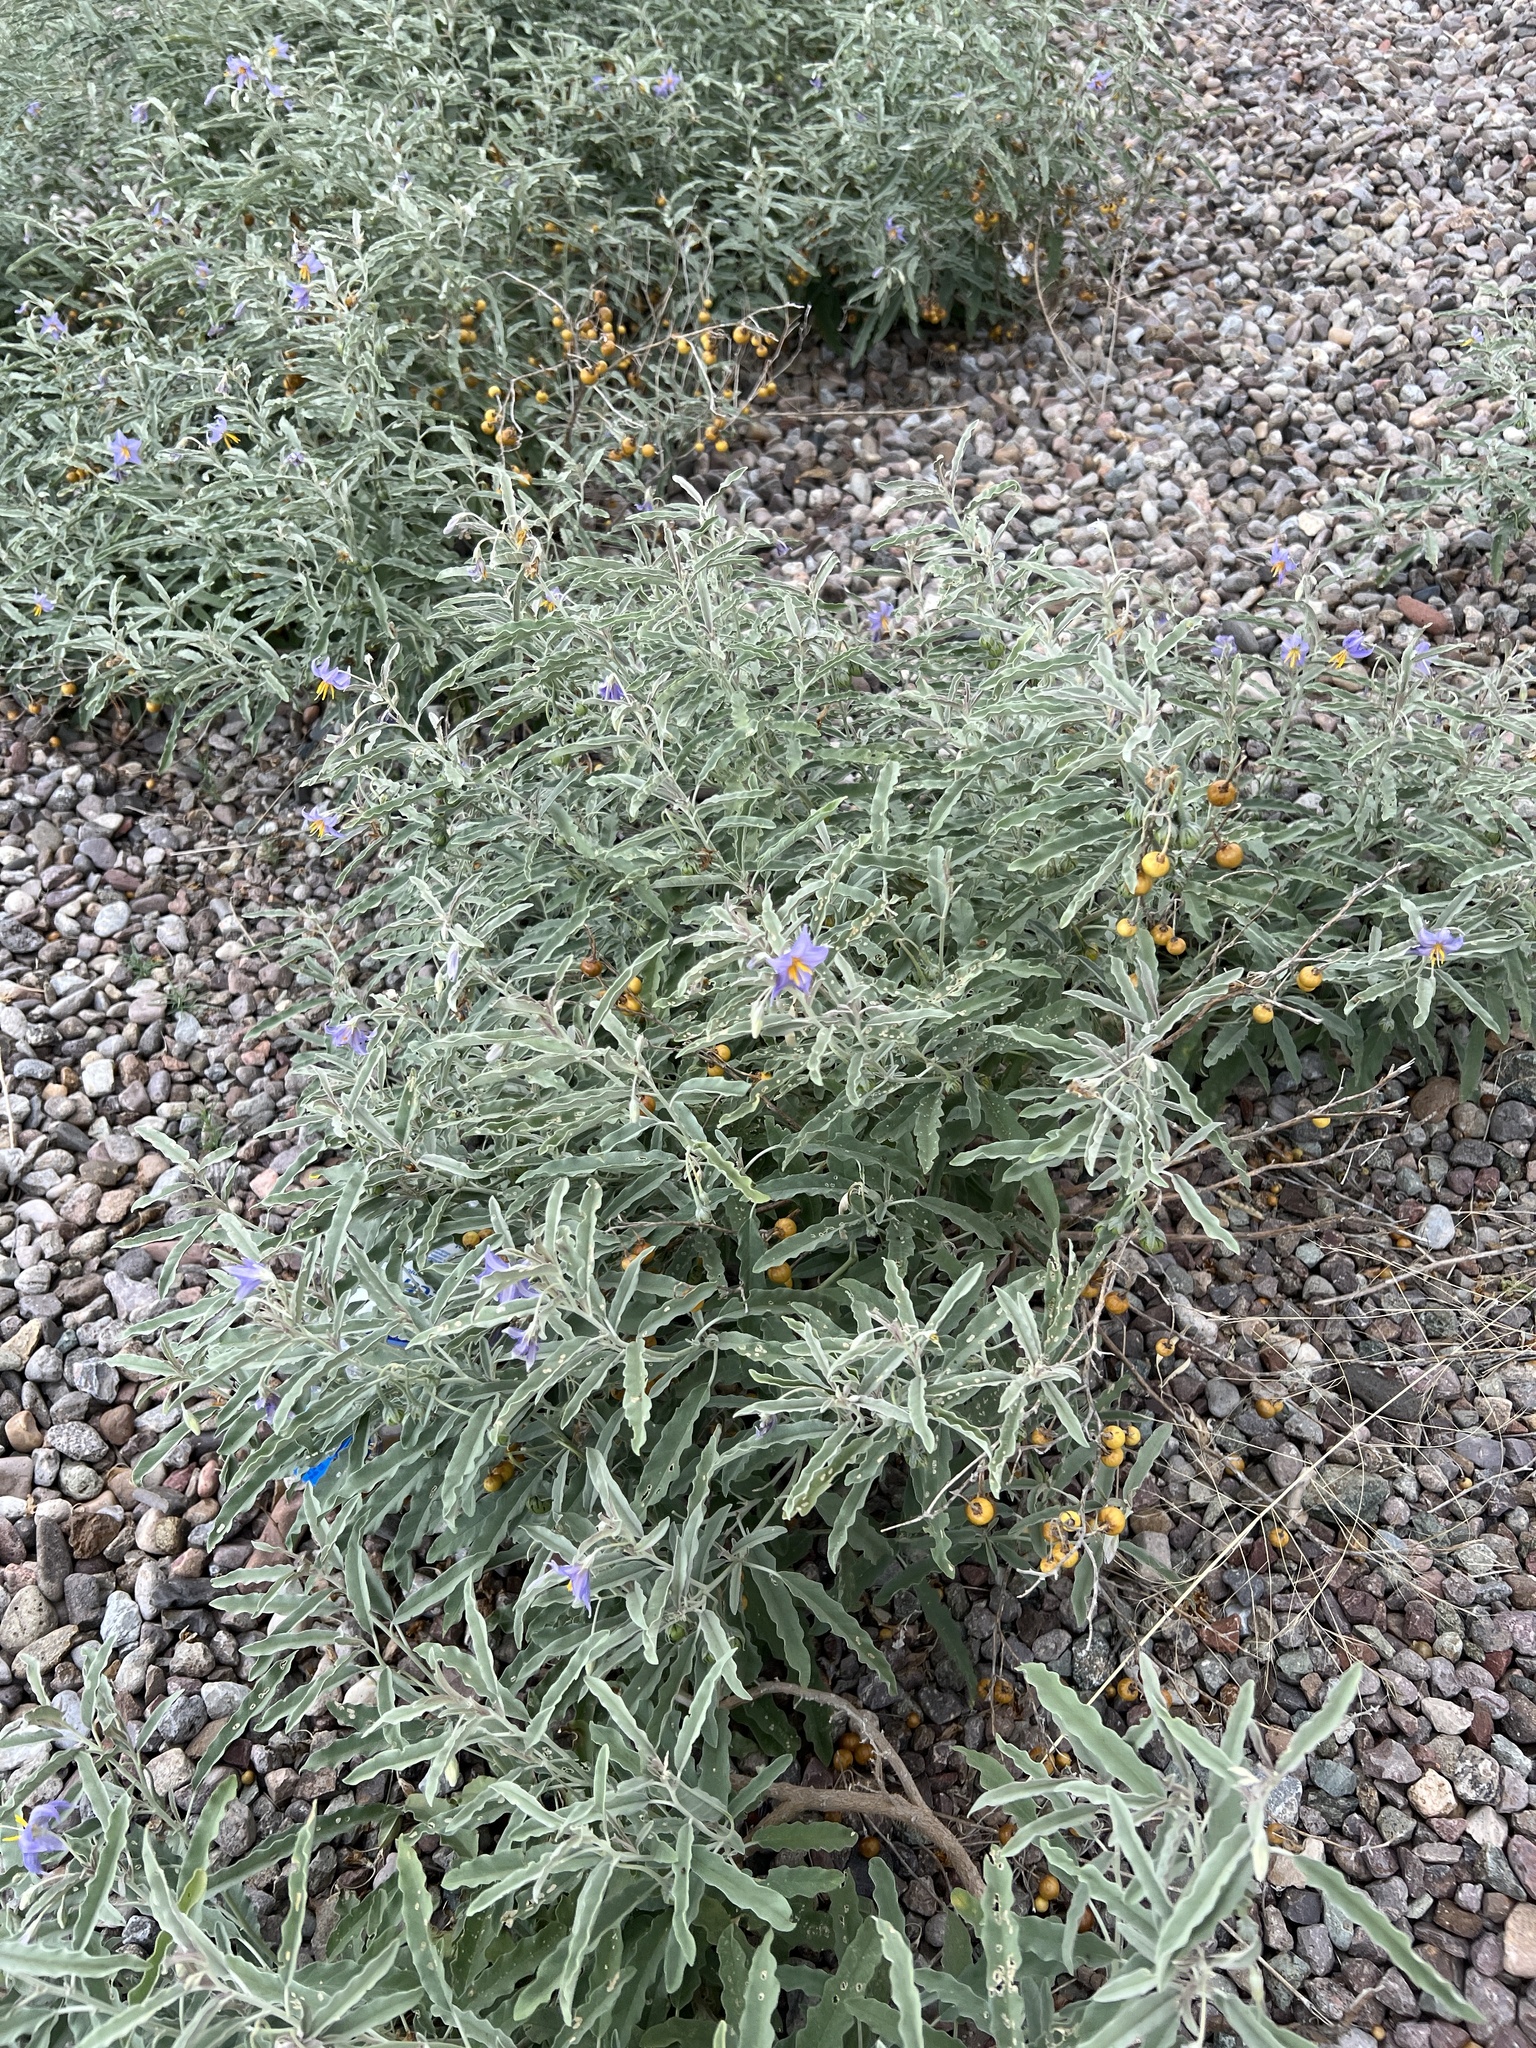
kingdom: Plantae
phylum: Tracheophyta
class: Magnoliopsida
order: Solanales
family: Solanaceae
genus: Solanum
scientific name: Solanum elaeagnifolium
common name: Silverleaf nightshade
